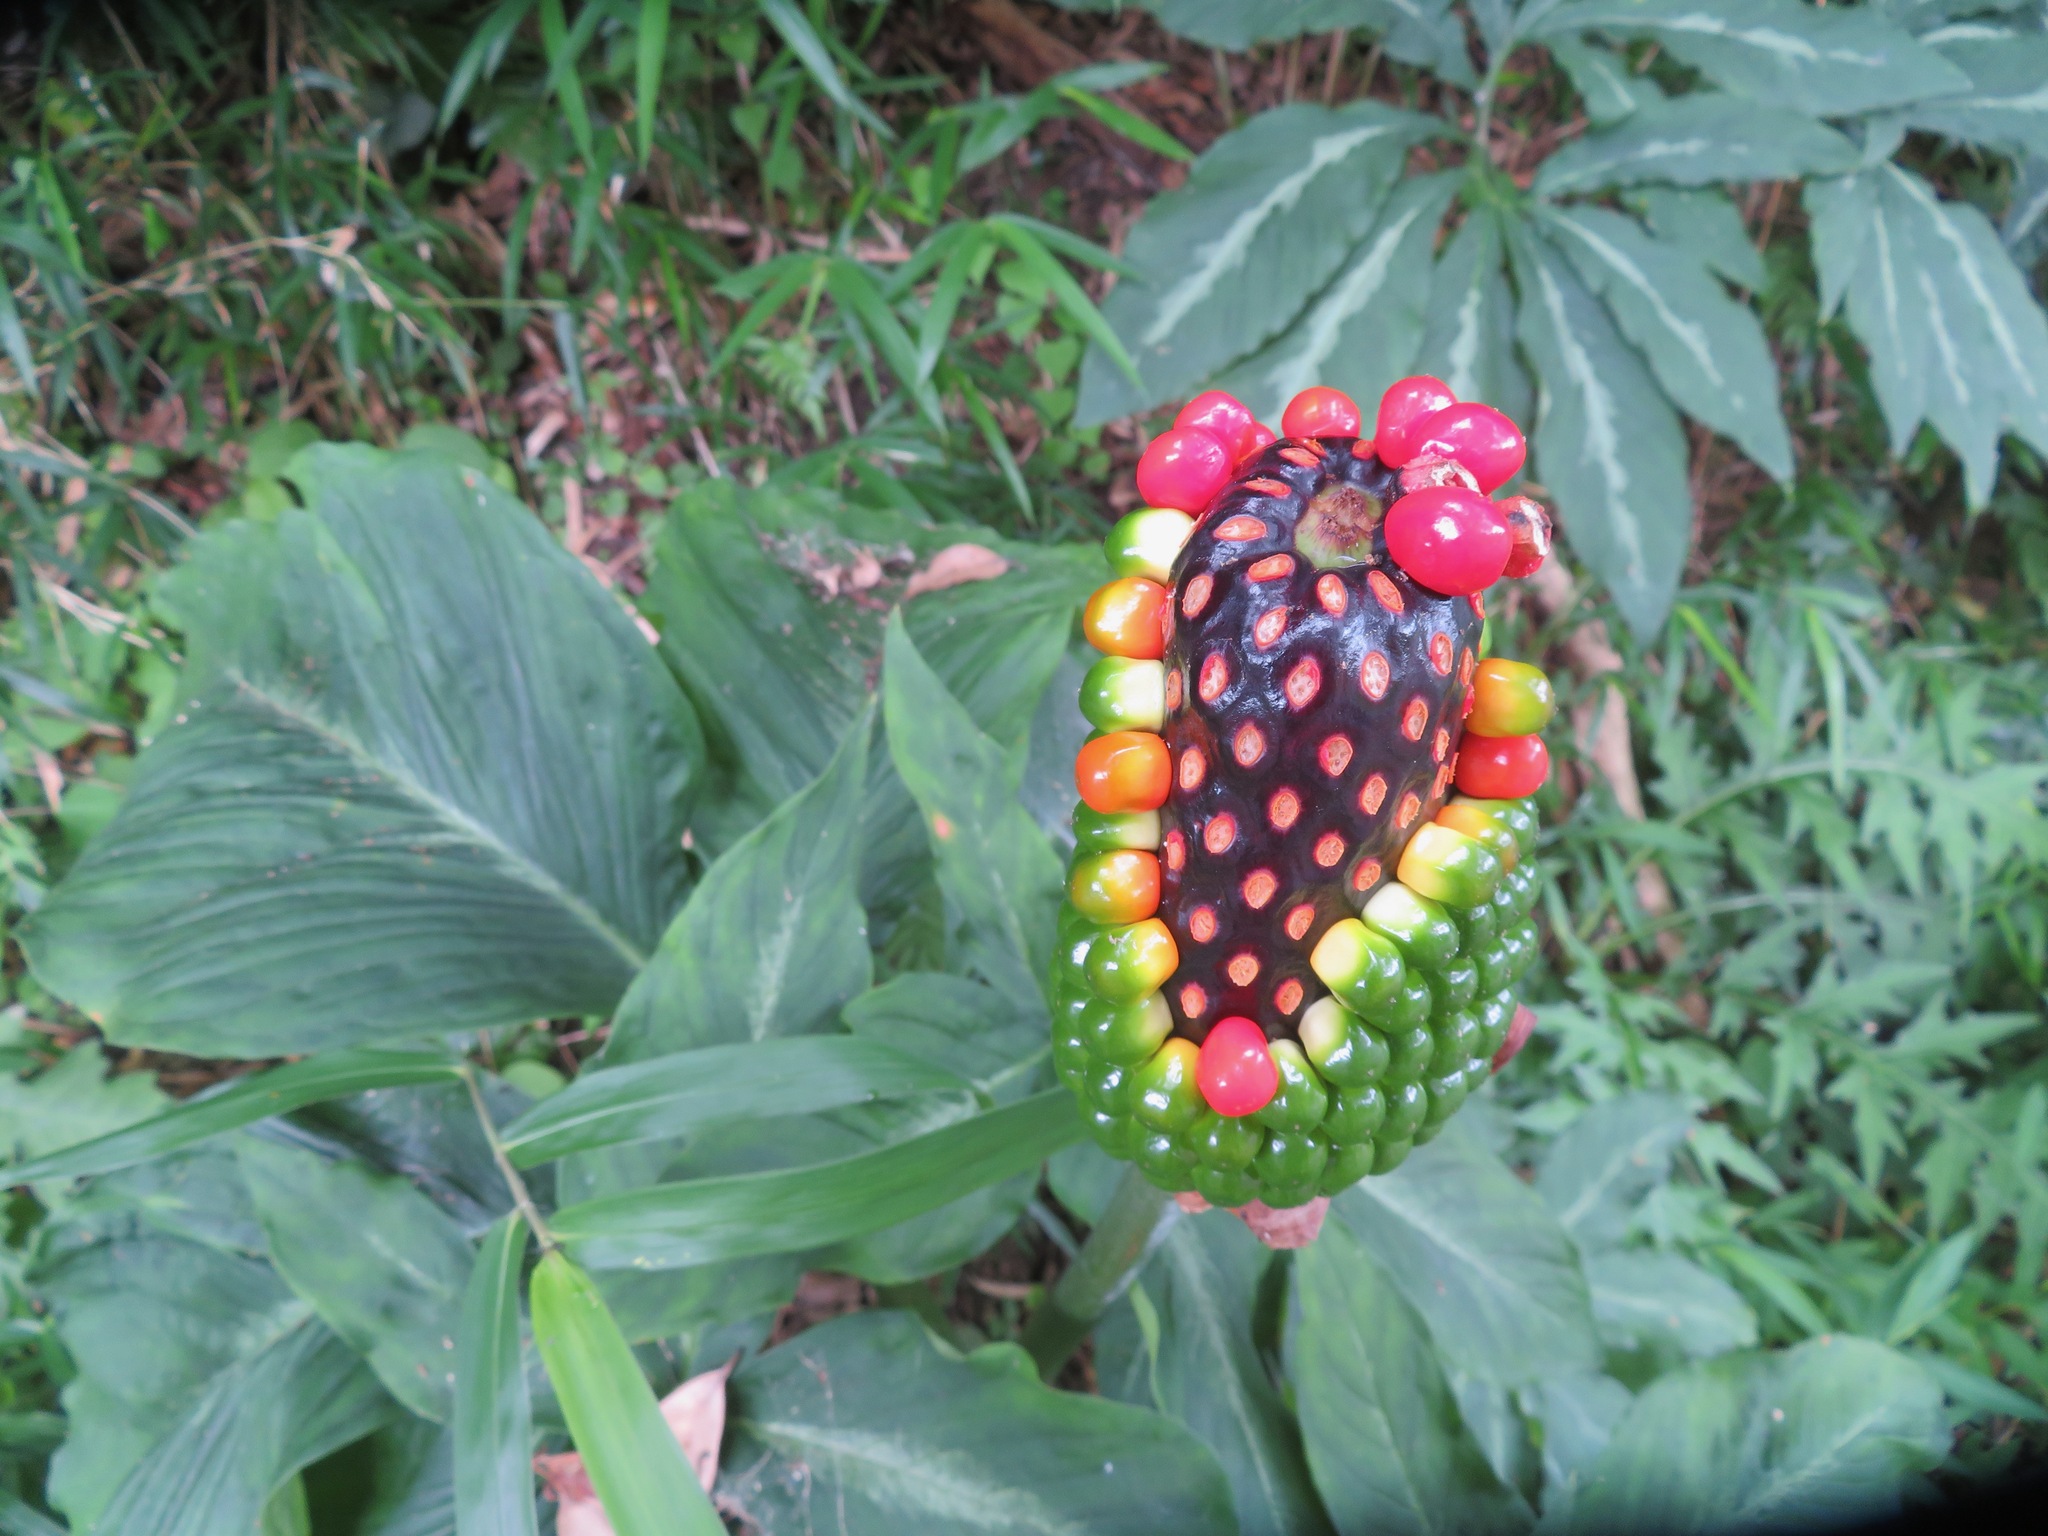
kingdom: Plantae
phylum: Tracheophyta
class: Liliopsida
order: Alismatales
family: Araceae
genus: Arisaema
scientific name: Arisaema aequinoctiale
